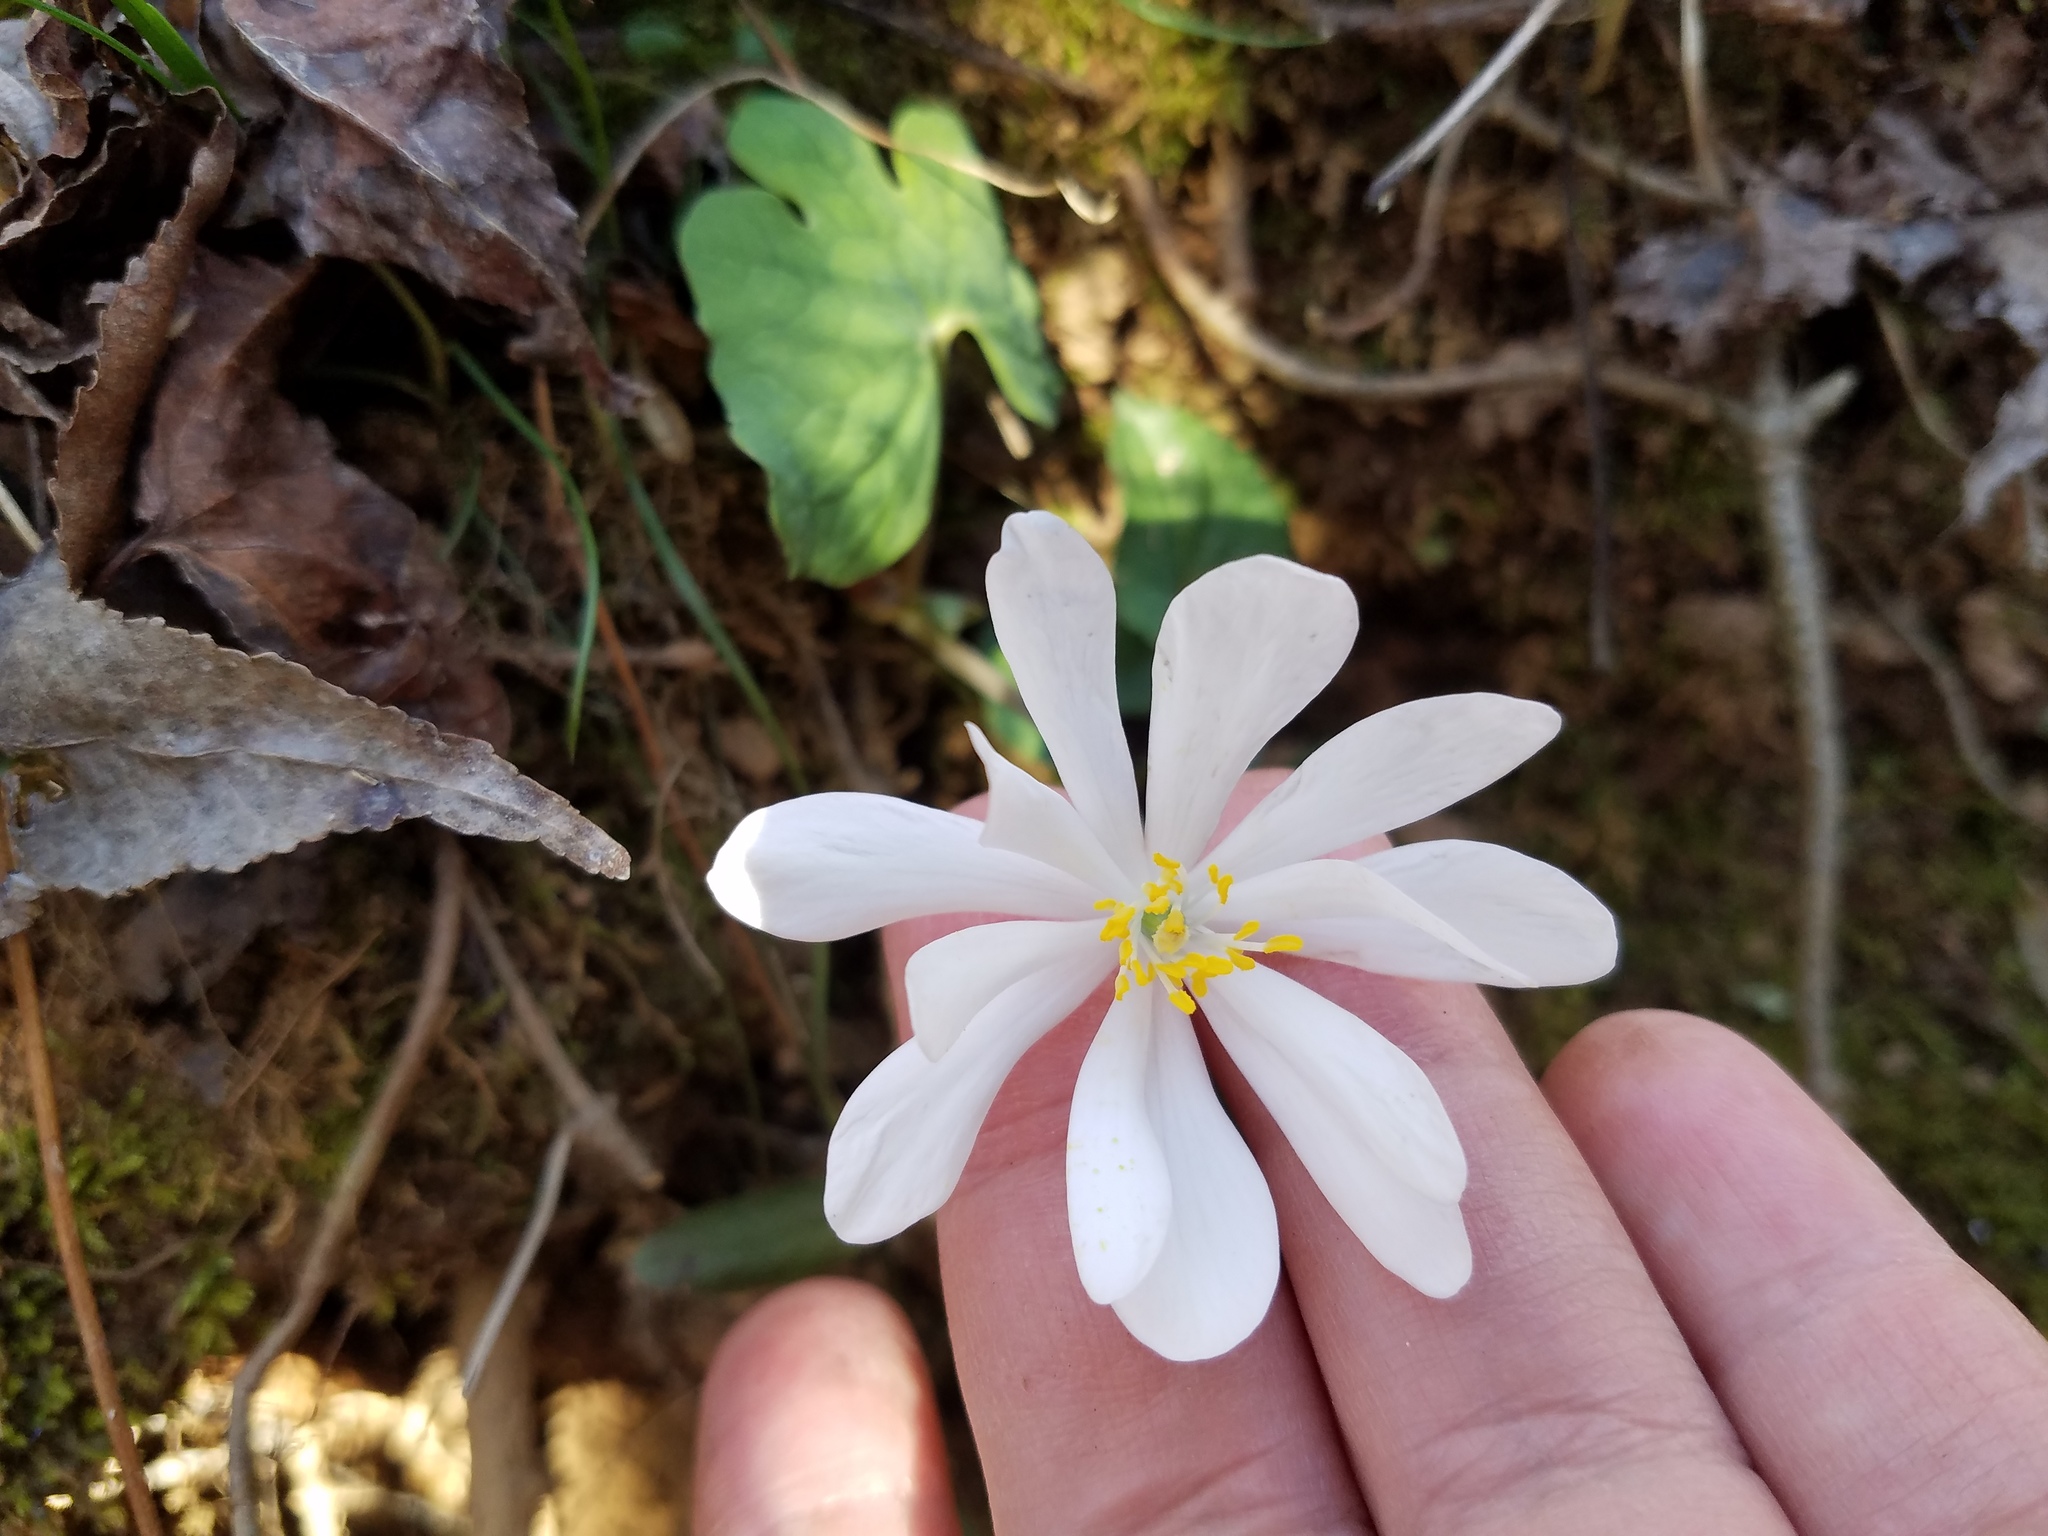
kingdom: Plantae
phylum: Tracheophyta
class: Magnoliopsida
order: Ranunculales
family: Papaveraceae
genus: Sanguinaria
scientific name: Sanguinaria canadensis
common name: Bloodroot
